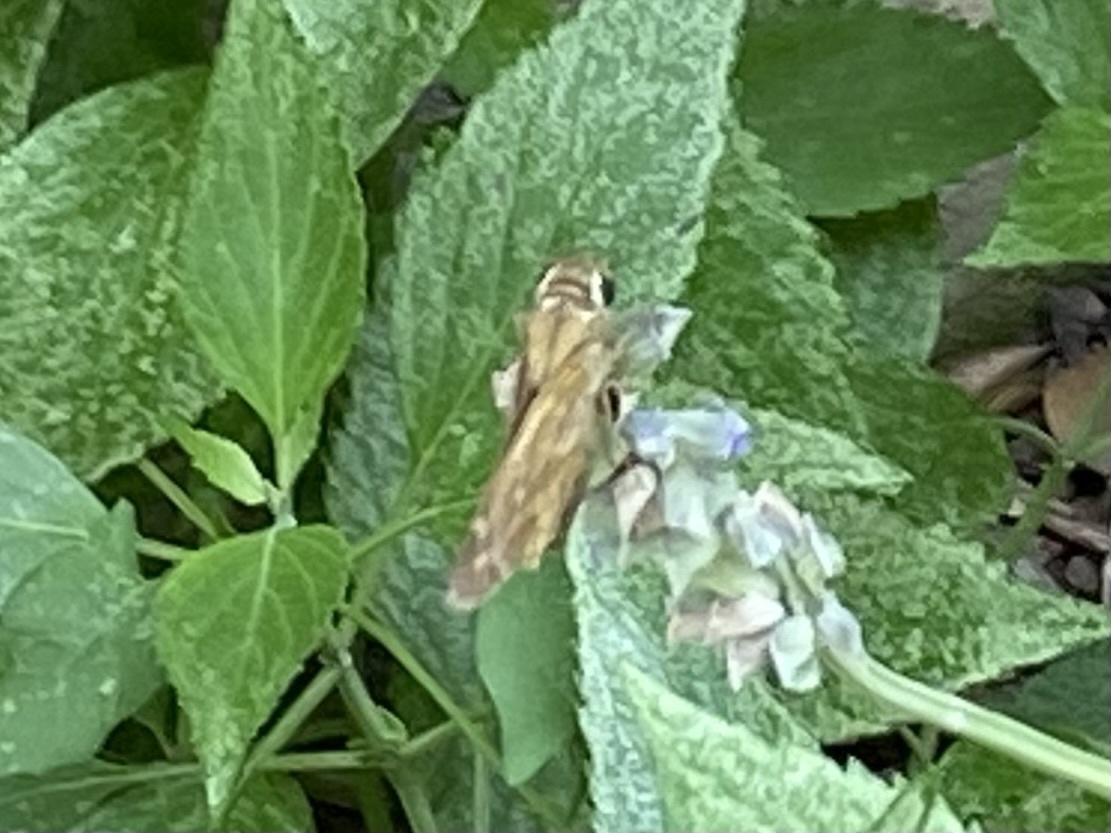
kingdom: Animalia
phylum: Arthropoda
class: Insecta
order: Lepidoptera
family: Hesperiidae
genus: Atalopedes
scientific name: Atalopedes
